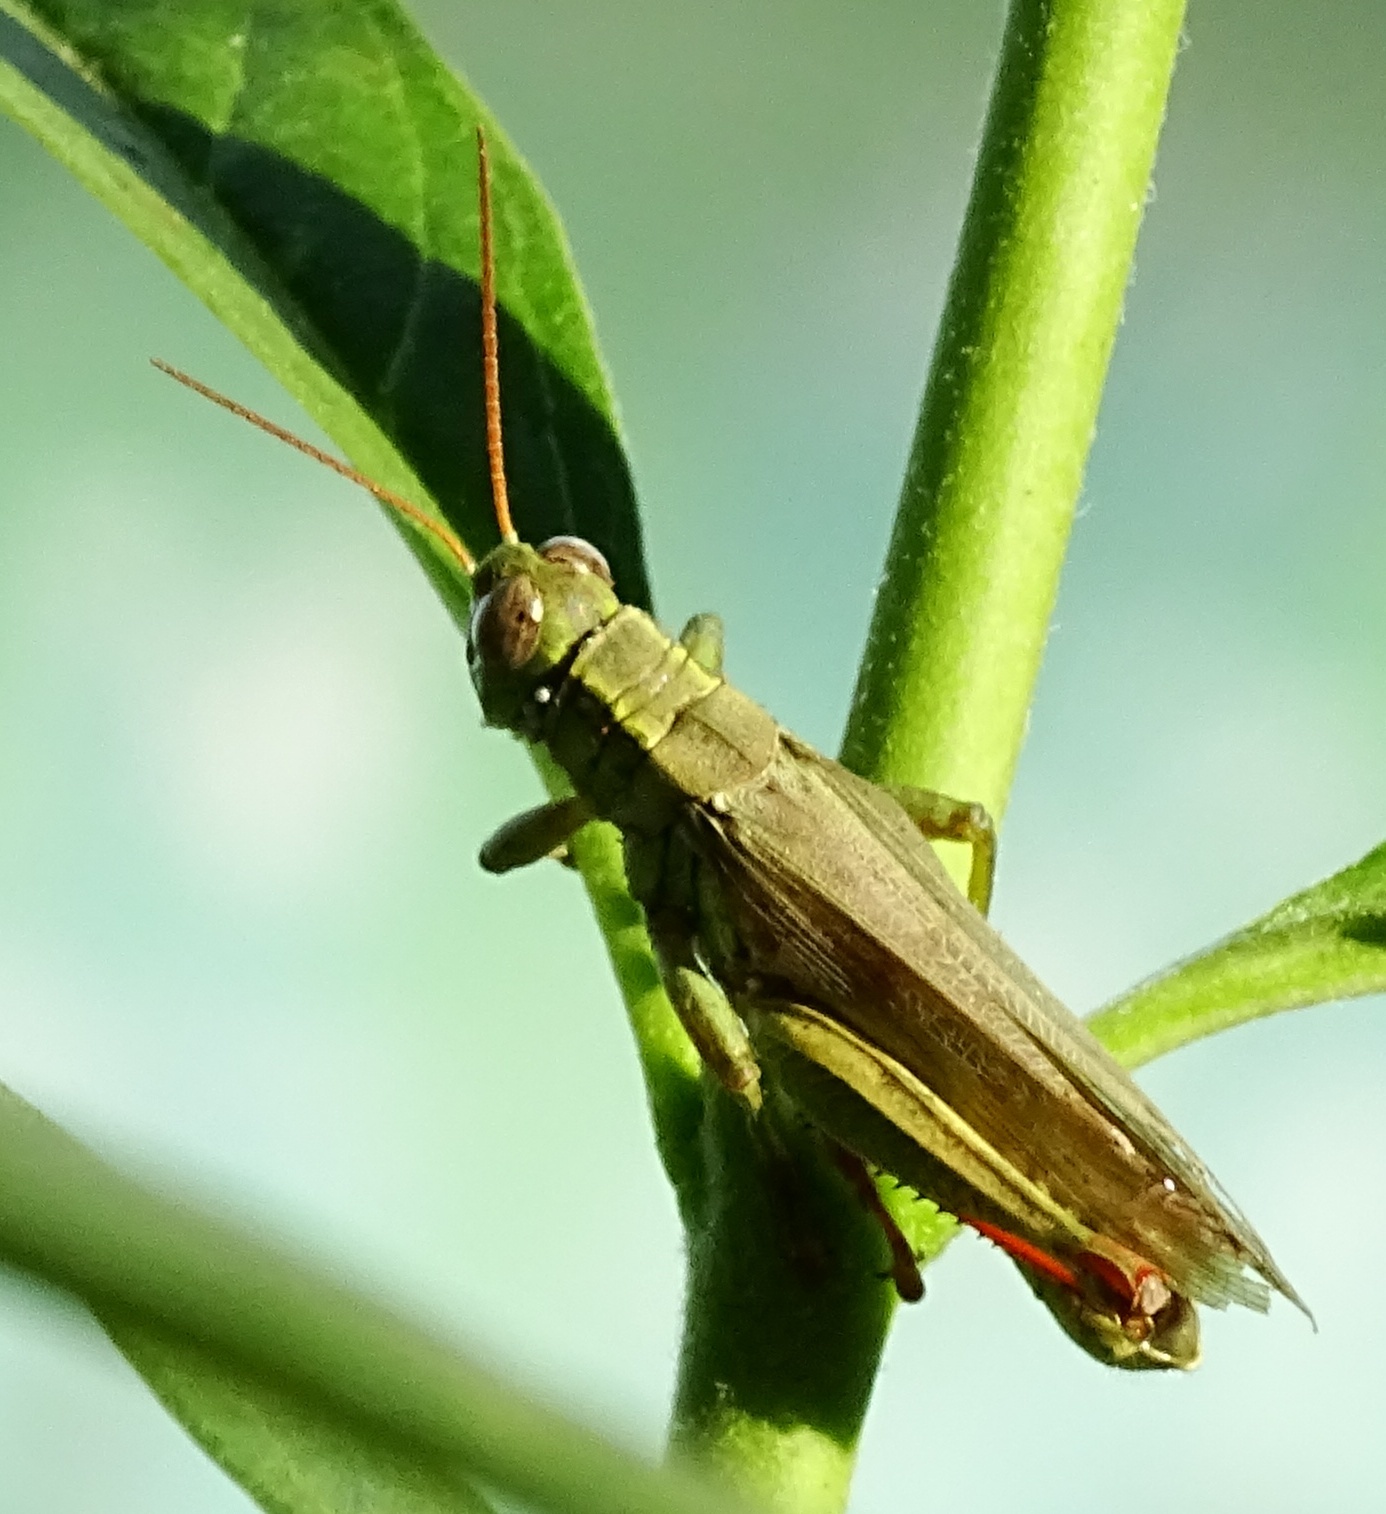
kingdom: Animalia
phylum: Arthropoda
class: Insecta
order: Orthoptera
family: Acrididae
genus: Melanoplus
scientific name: Melanoplus yarrowii
